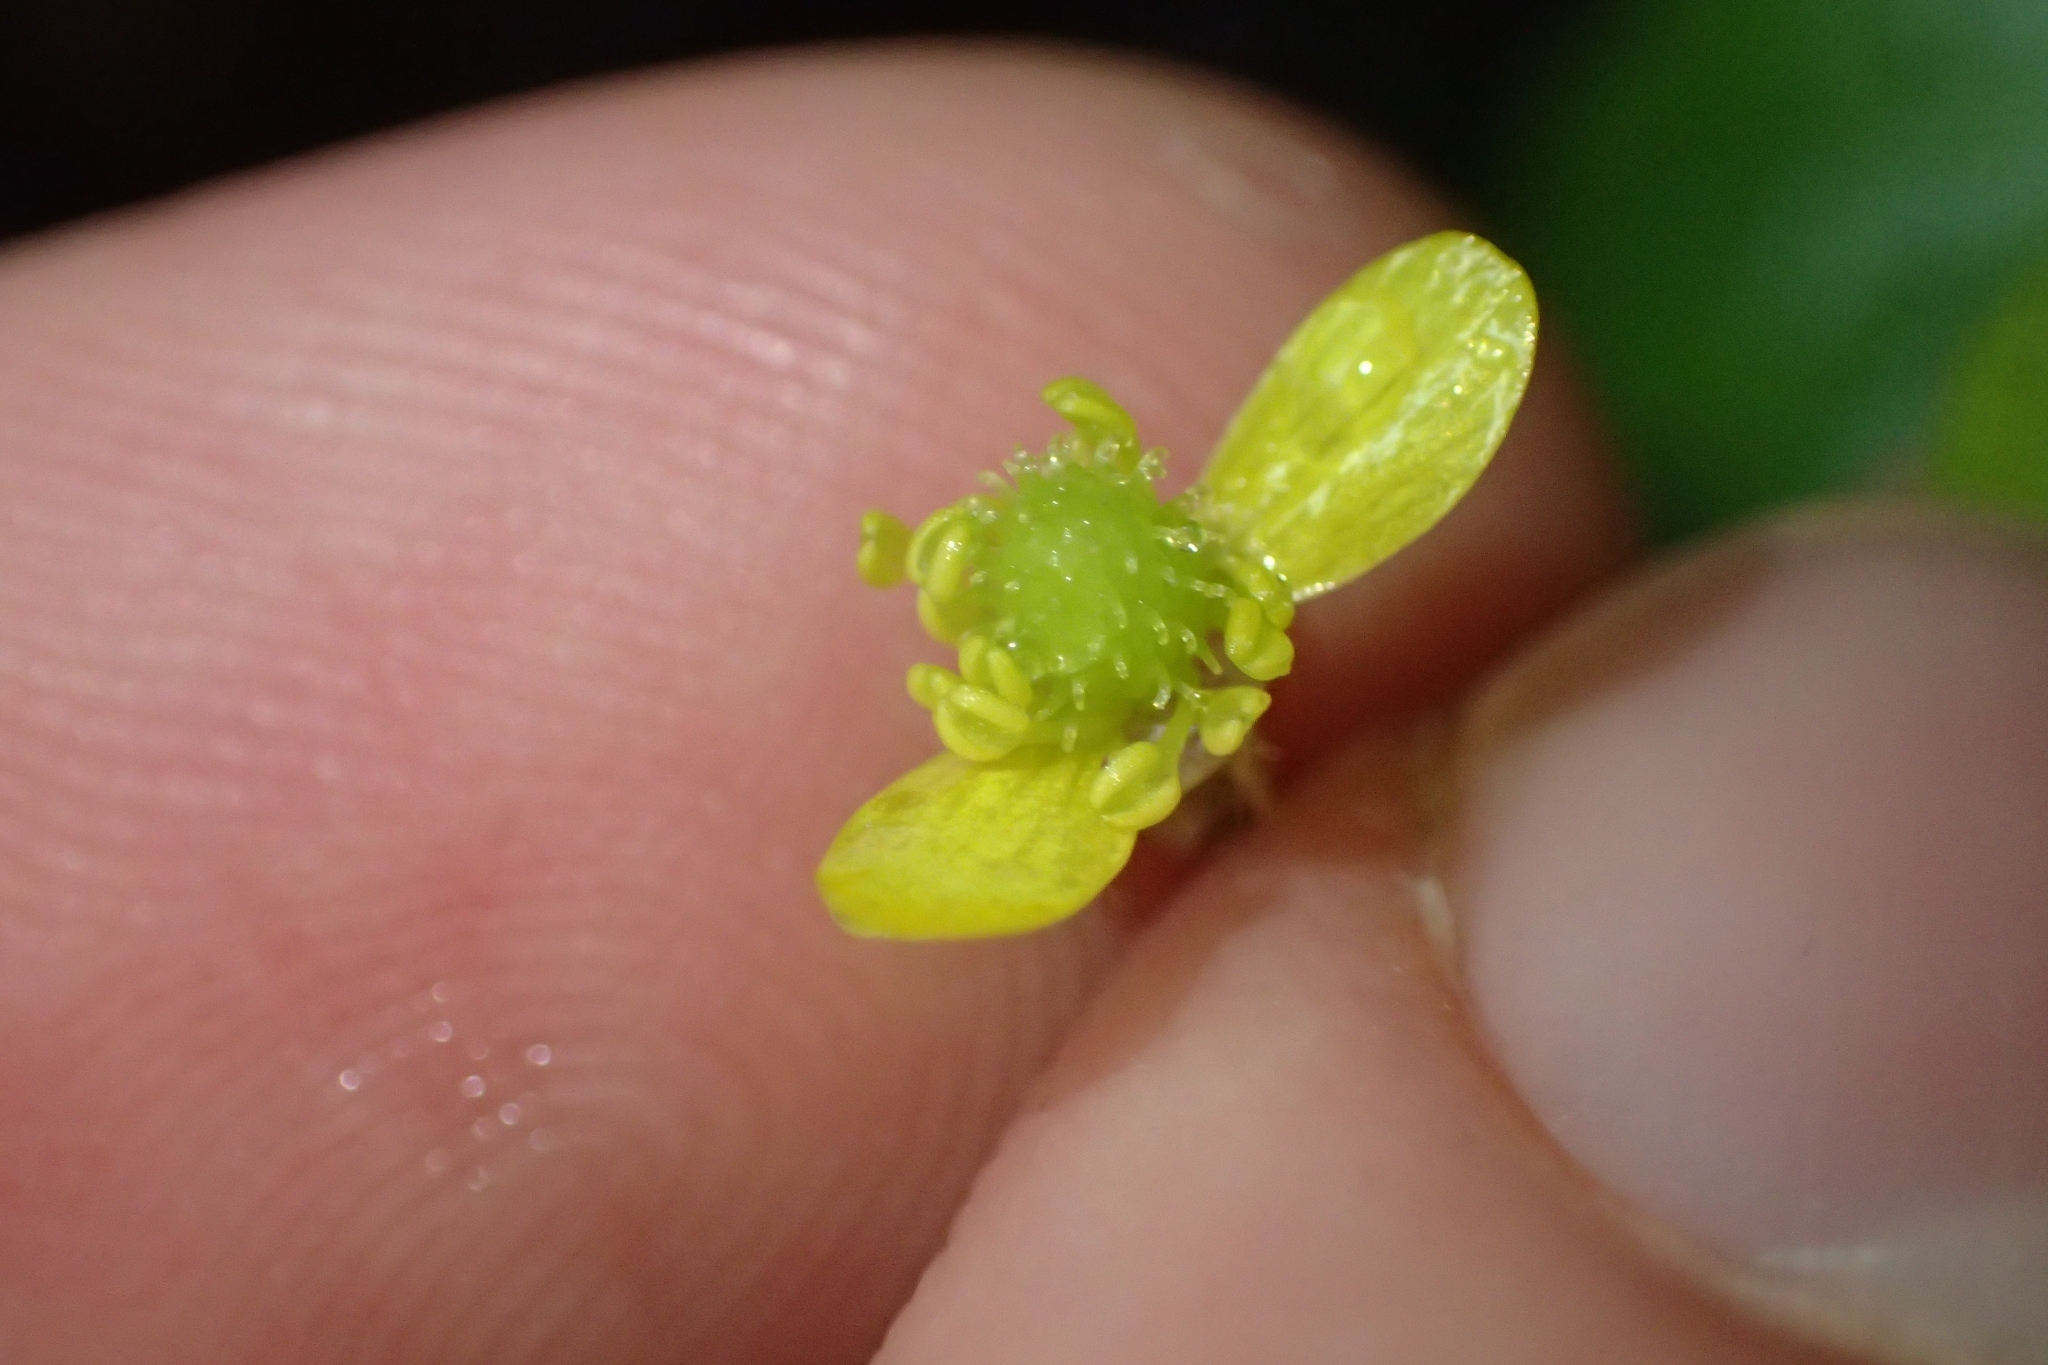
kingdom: Plantae
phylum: Tracheophyta
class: Magnoliopsida
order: Ranunculales
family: Ranunculaceae
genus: Ranunculus
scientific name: Ranunculus reflexus
